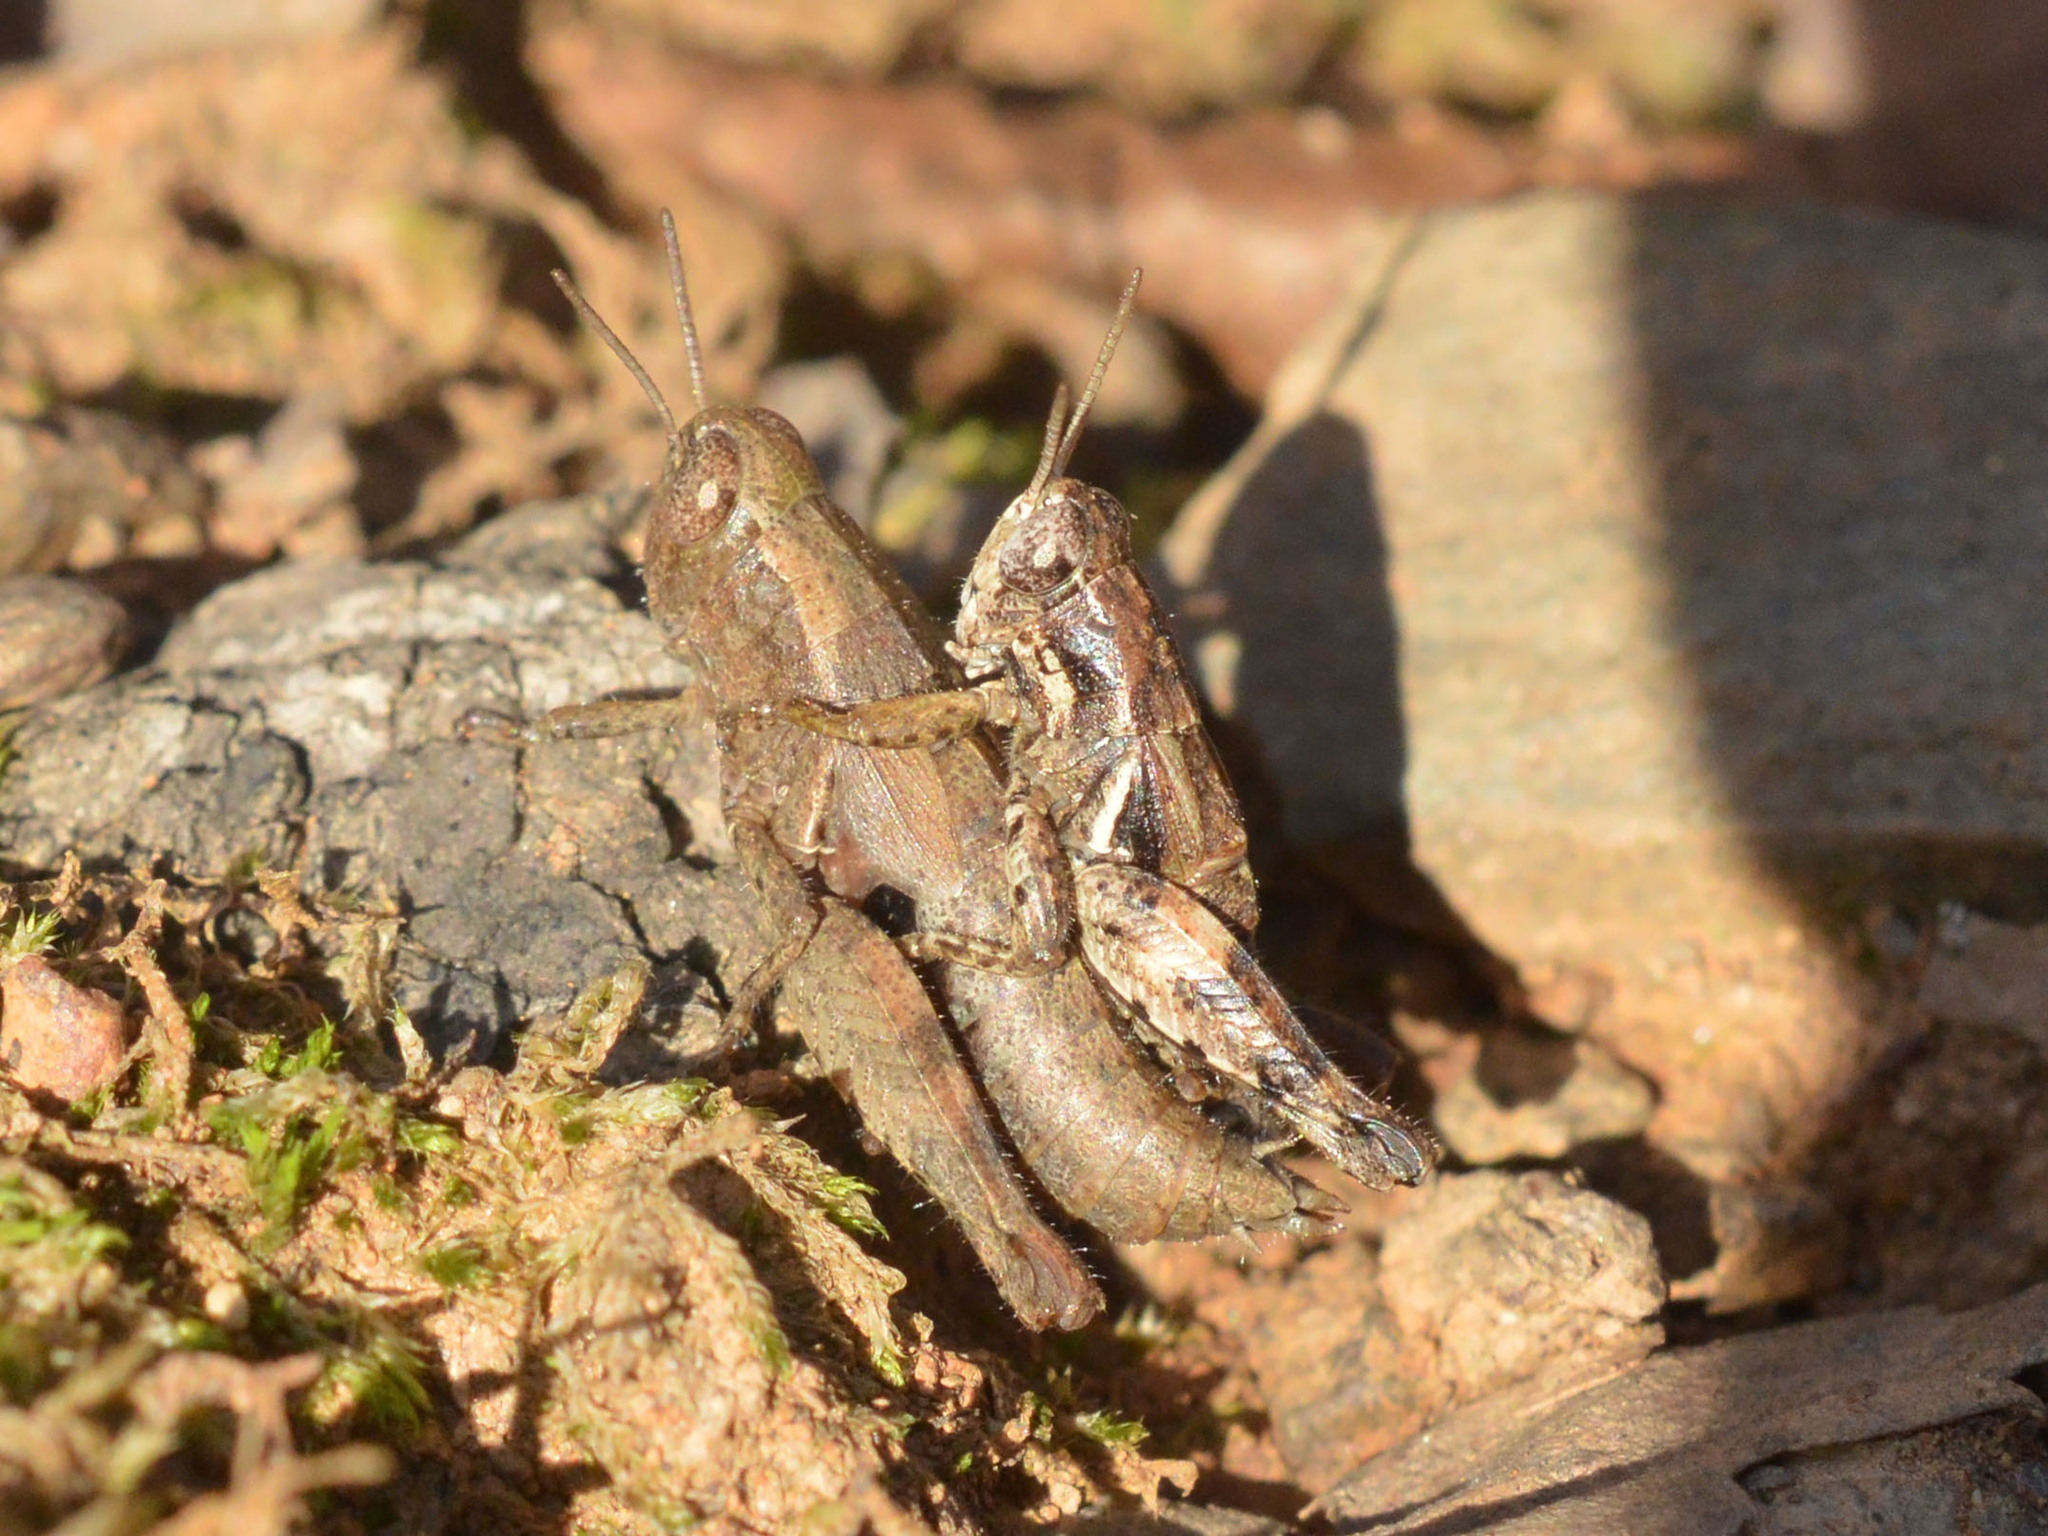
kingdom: Animalia
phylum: Arthropoda
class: Insecta
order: Orthoptera
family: Acrididae
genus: Pezotettix
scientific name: Pezotettix giornae
